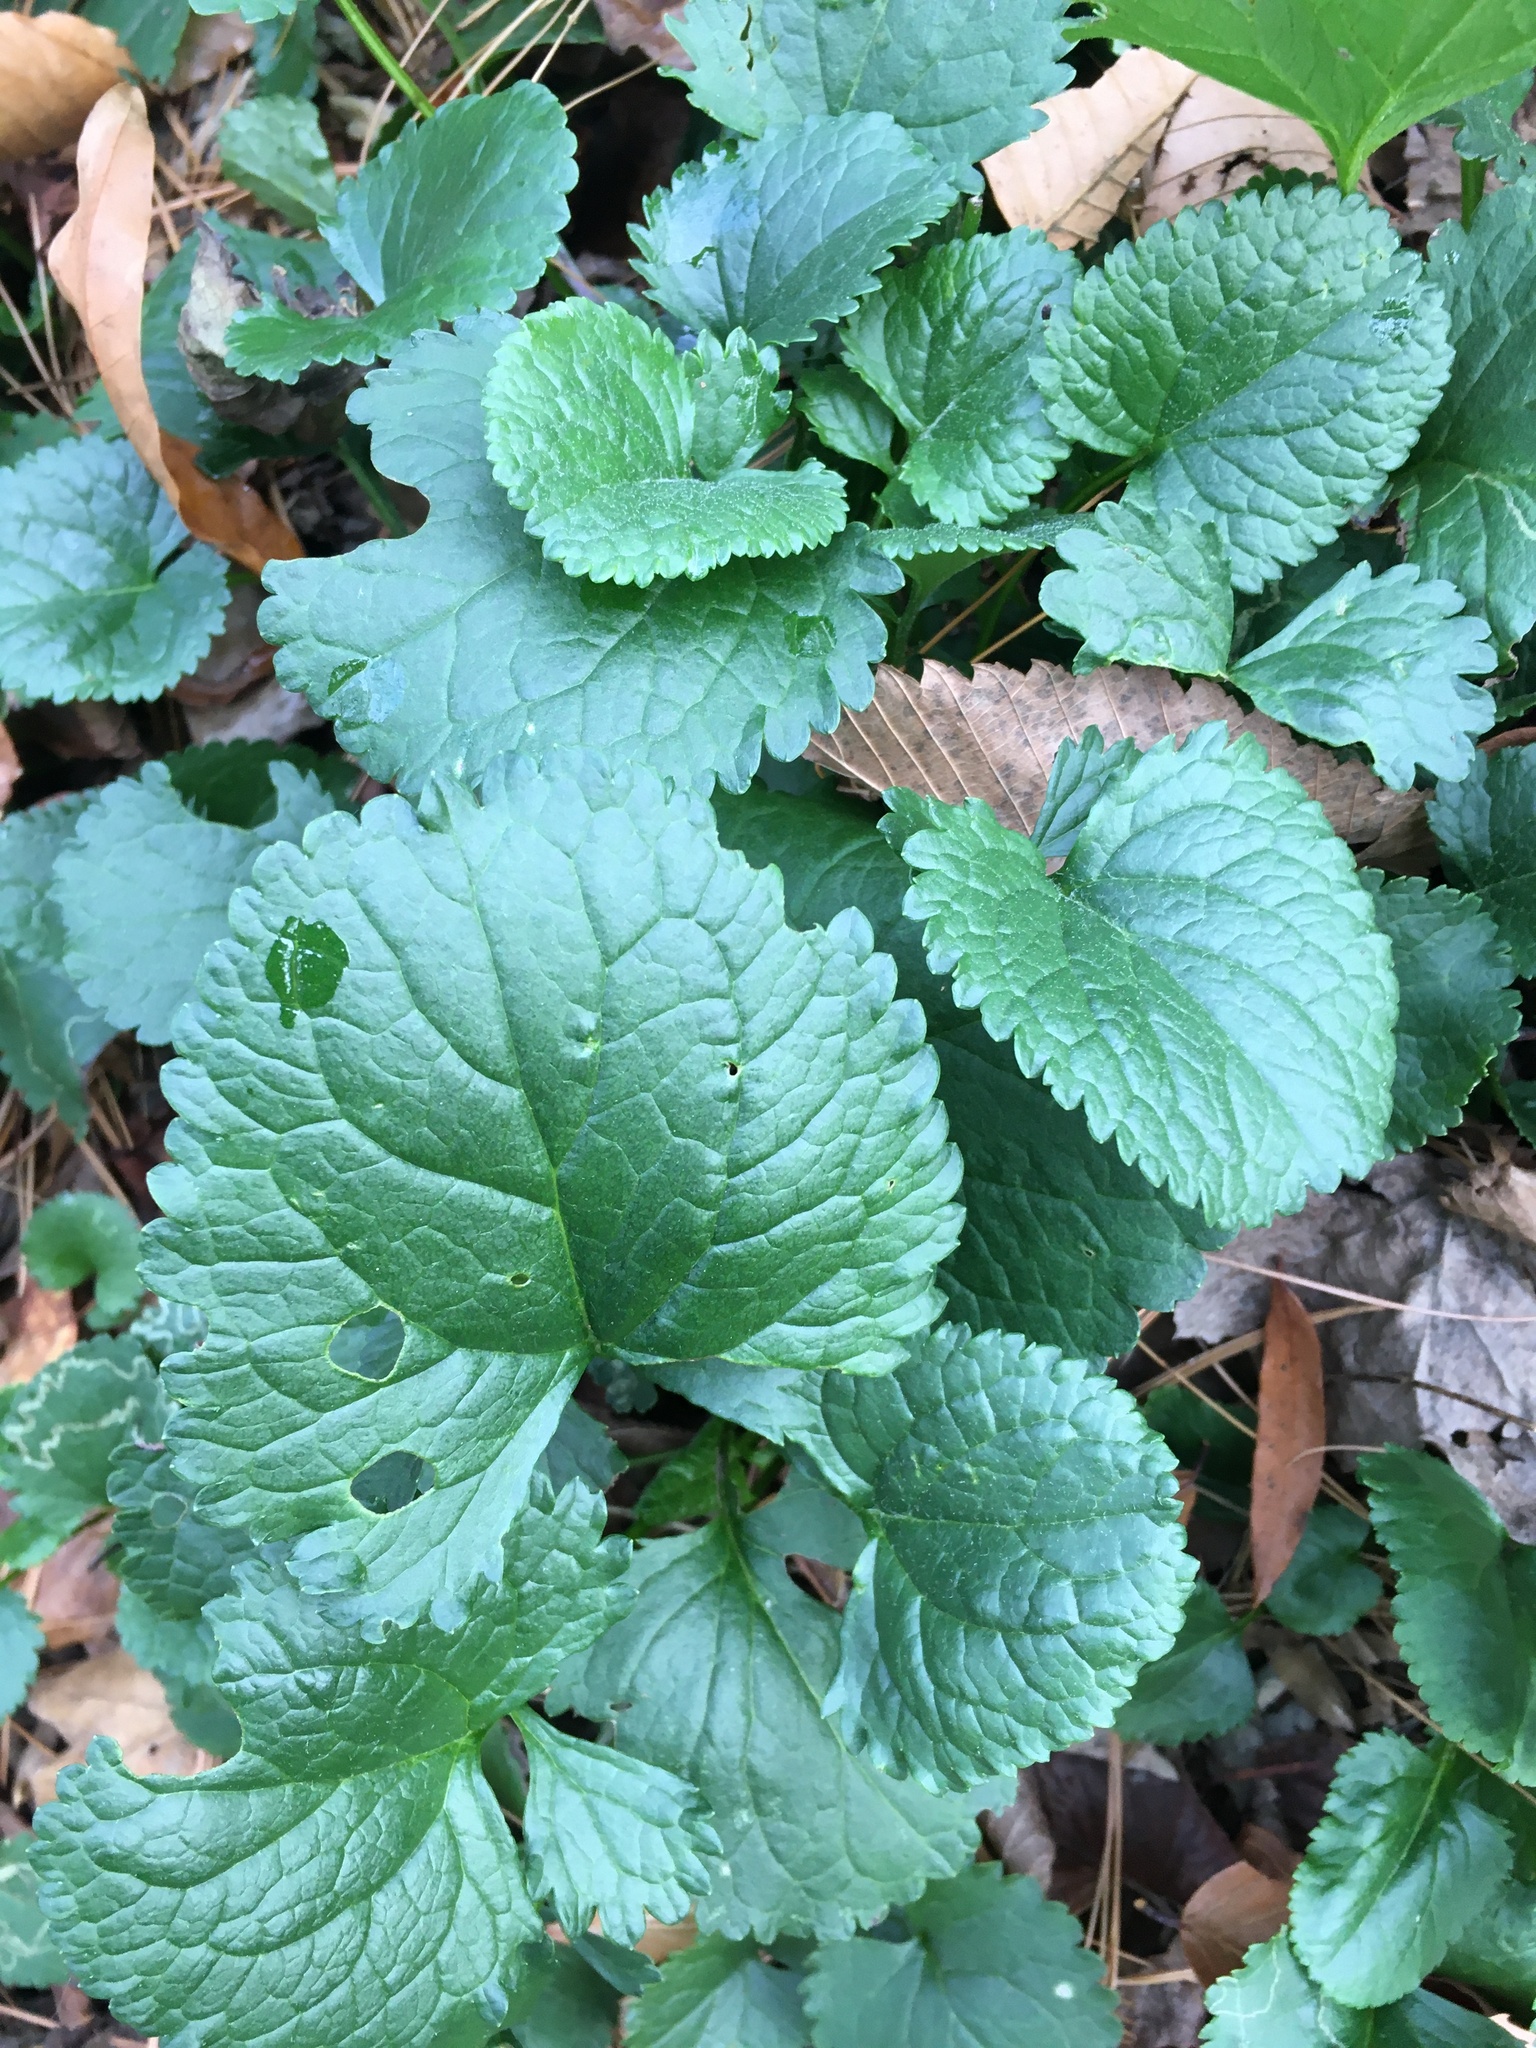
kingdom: Plantae
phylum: Tracheophyta
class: Magnoliopsida
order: Asterales
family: Asteraceae
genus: Packera
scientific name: Packera aurea
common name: Golden groundsel
